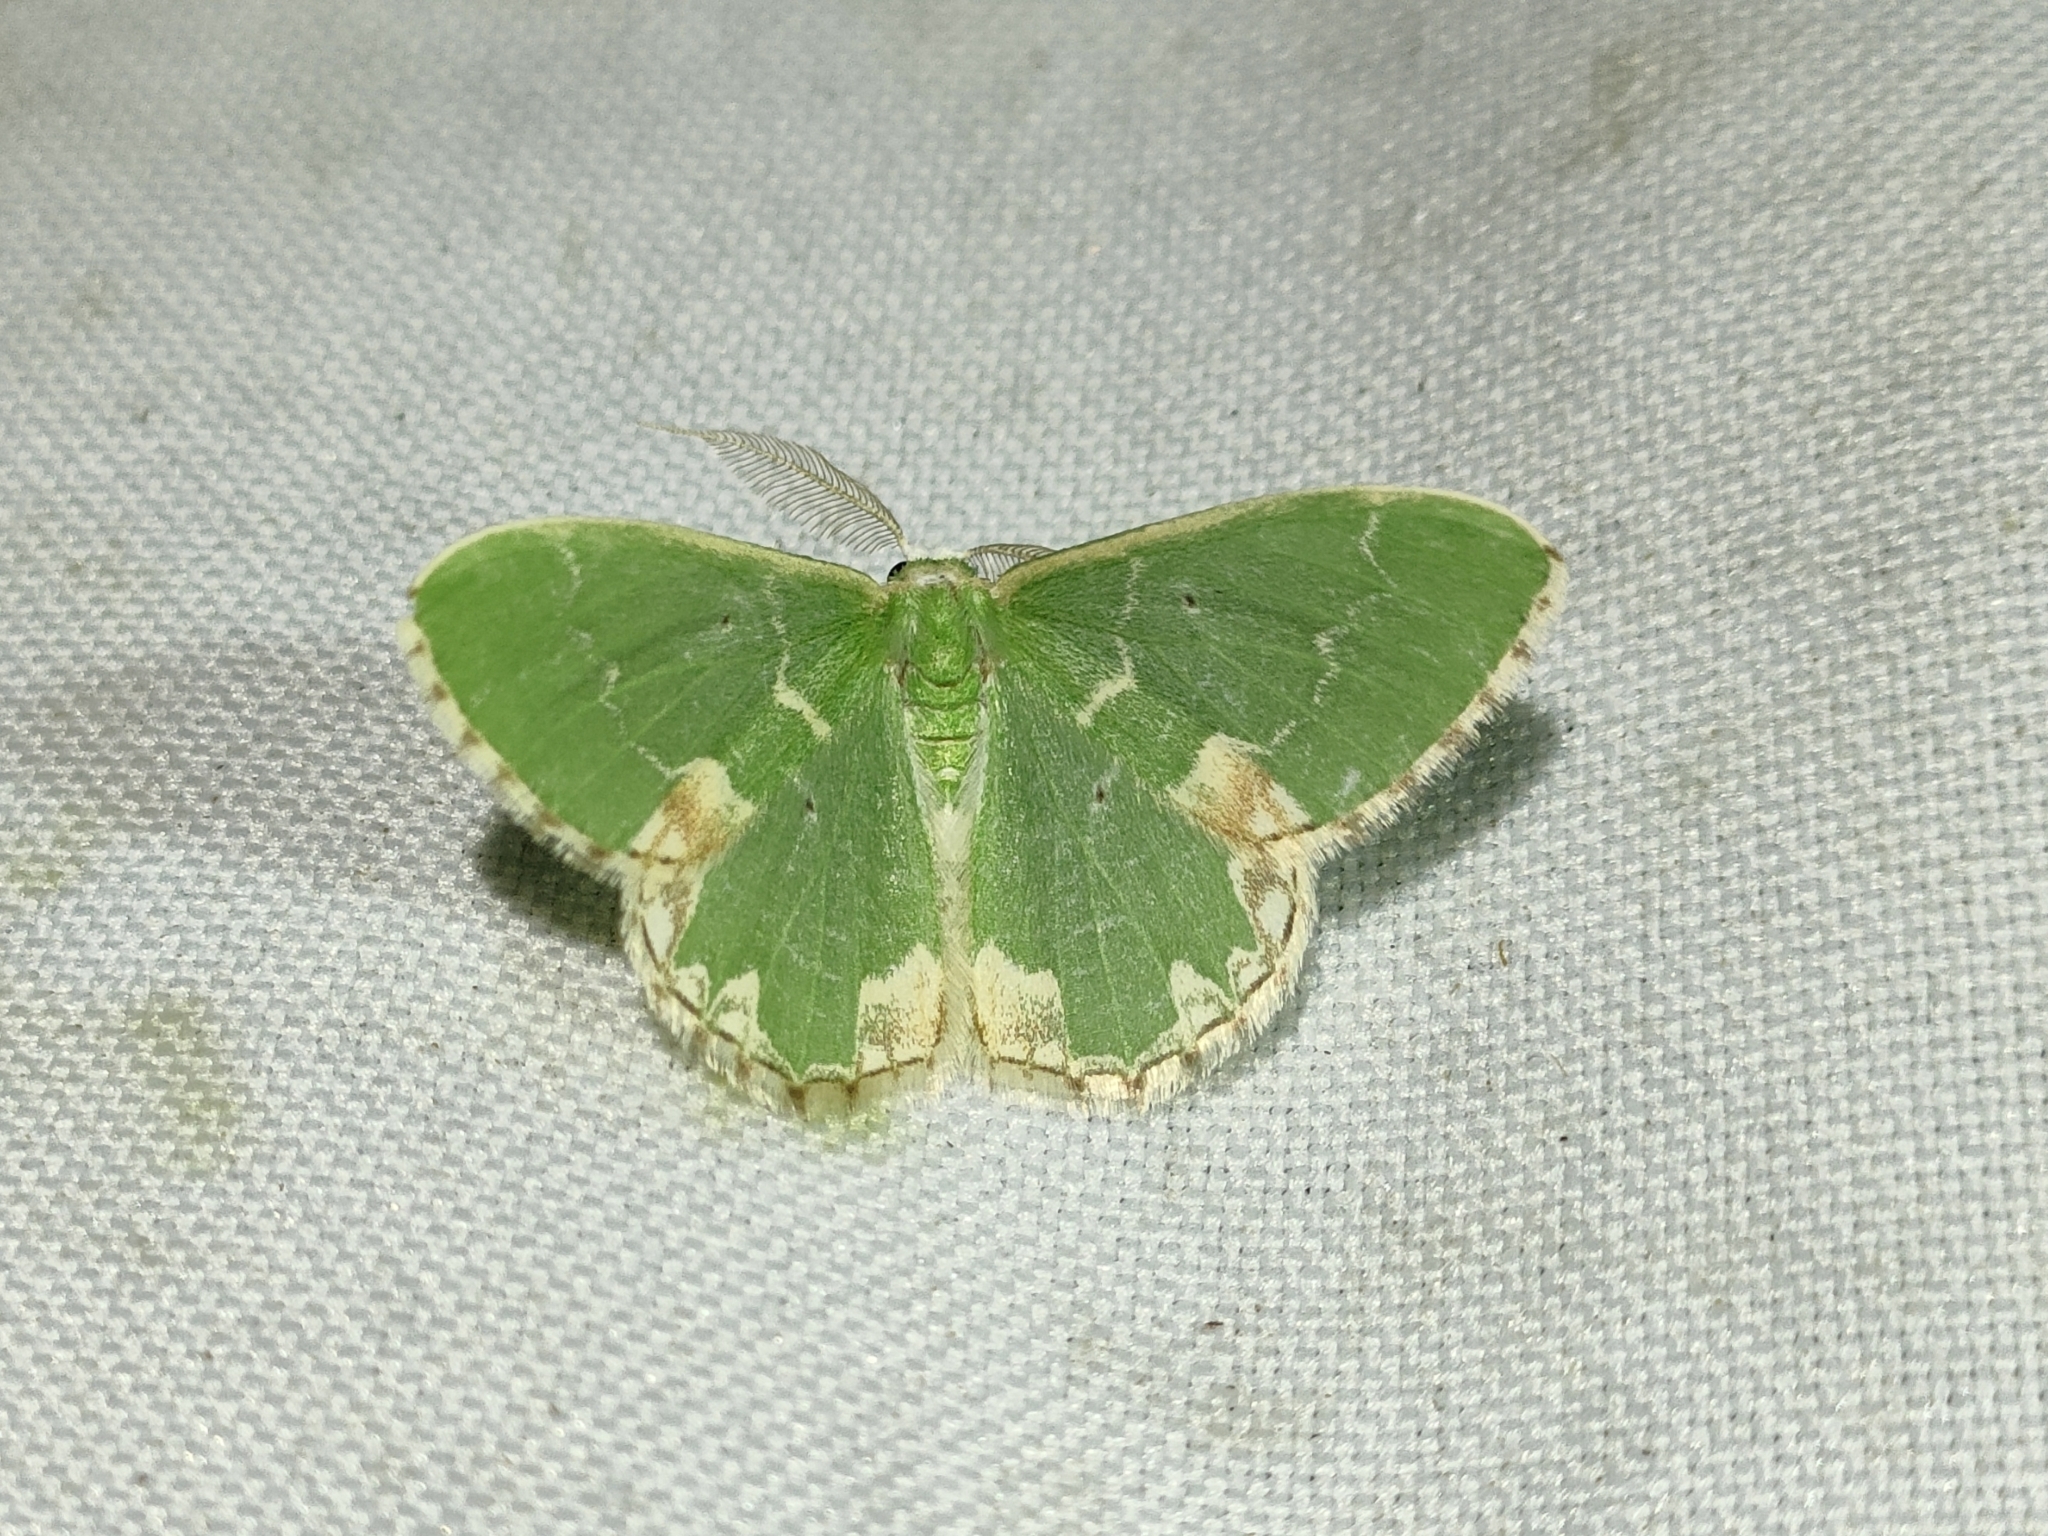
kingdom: Animalia
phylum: Arthropoda
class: Insecta
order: Lepidoptera
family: Geometridae
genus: Comibaena
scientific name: Comibaena bajularia
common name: Blotched emerald
